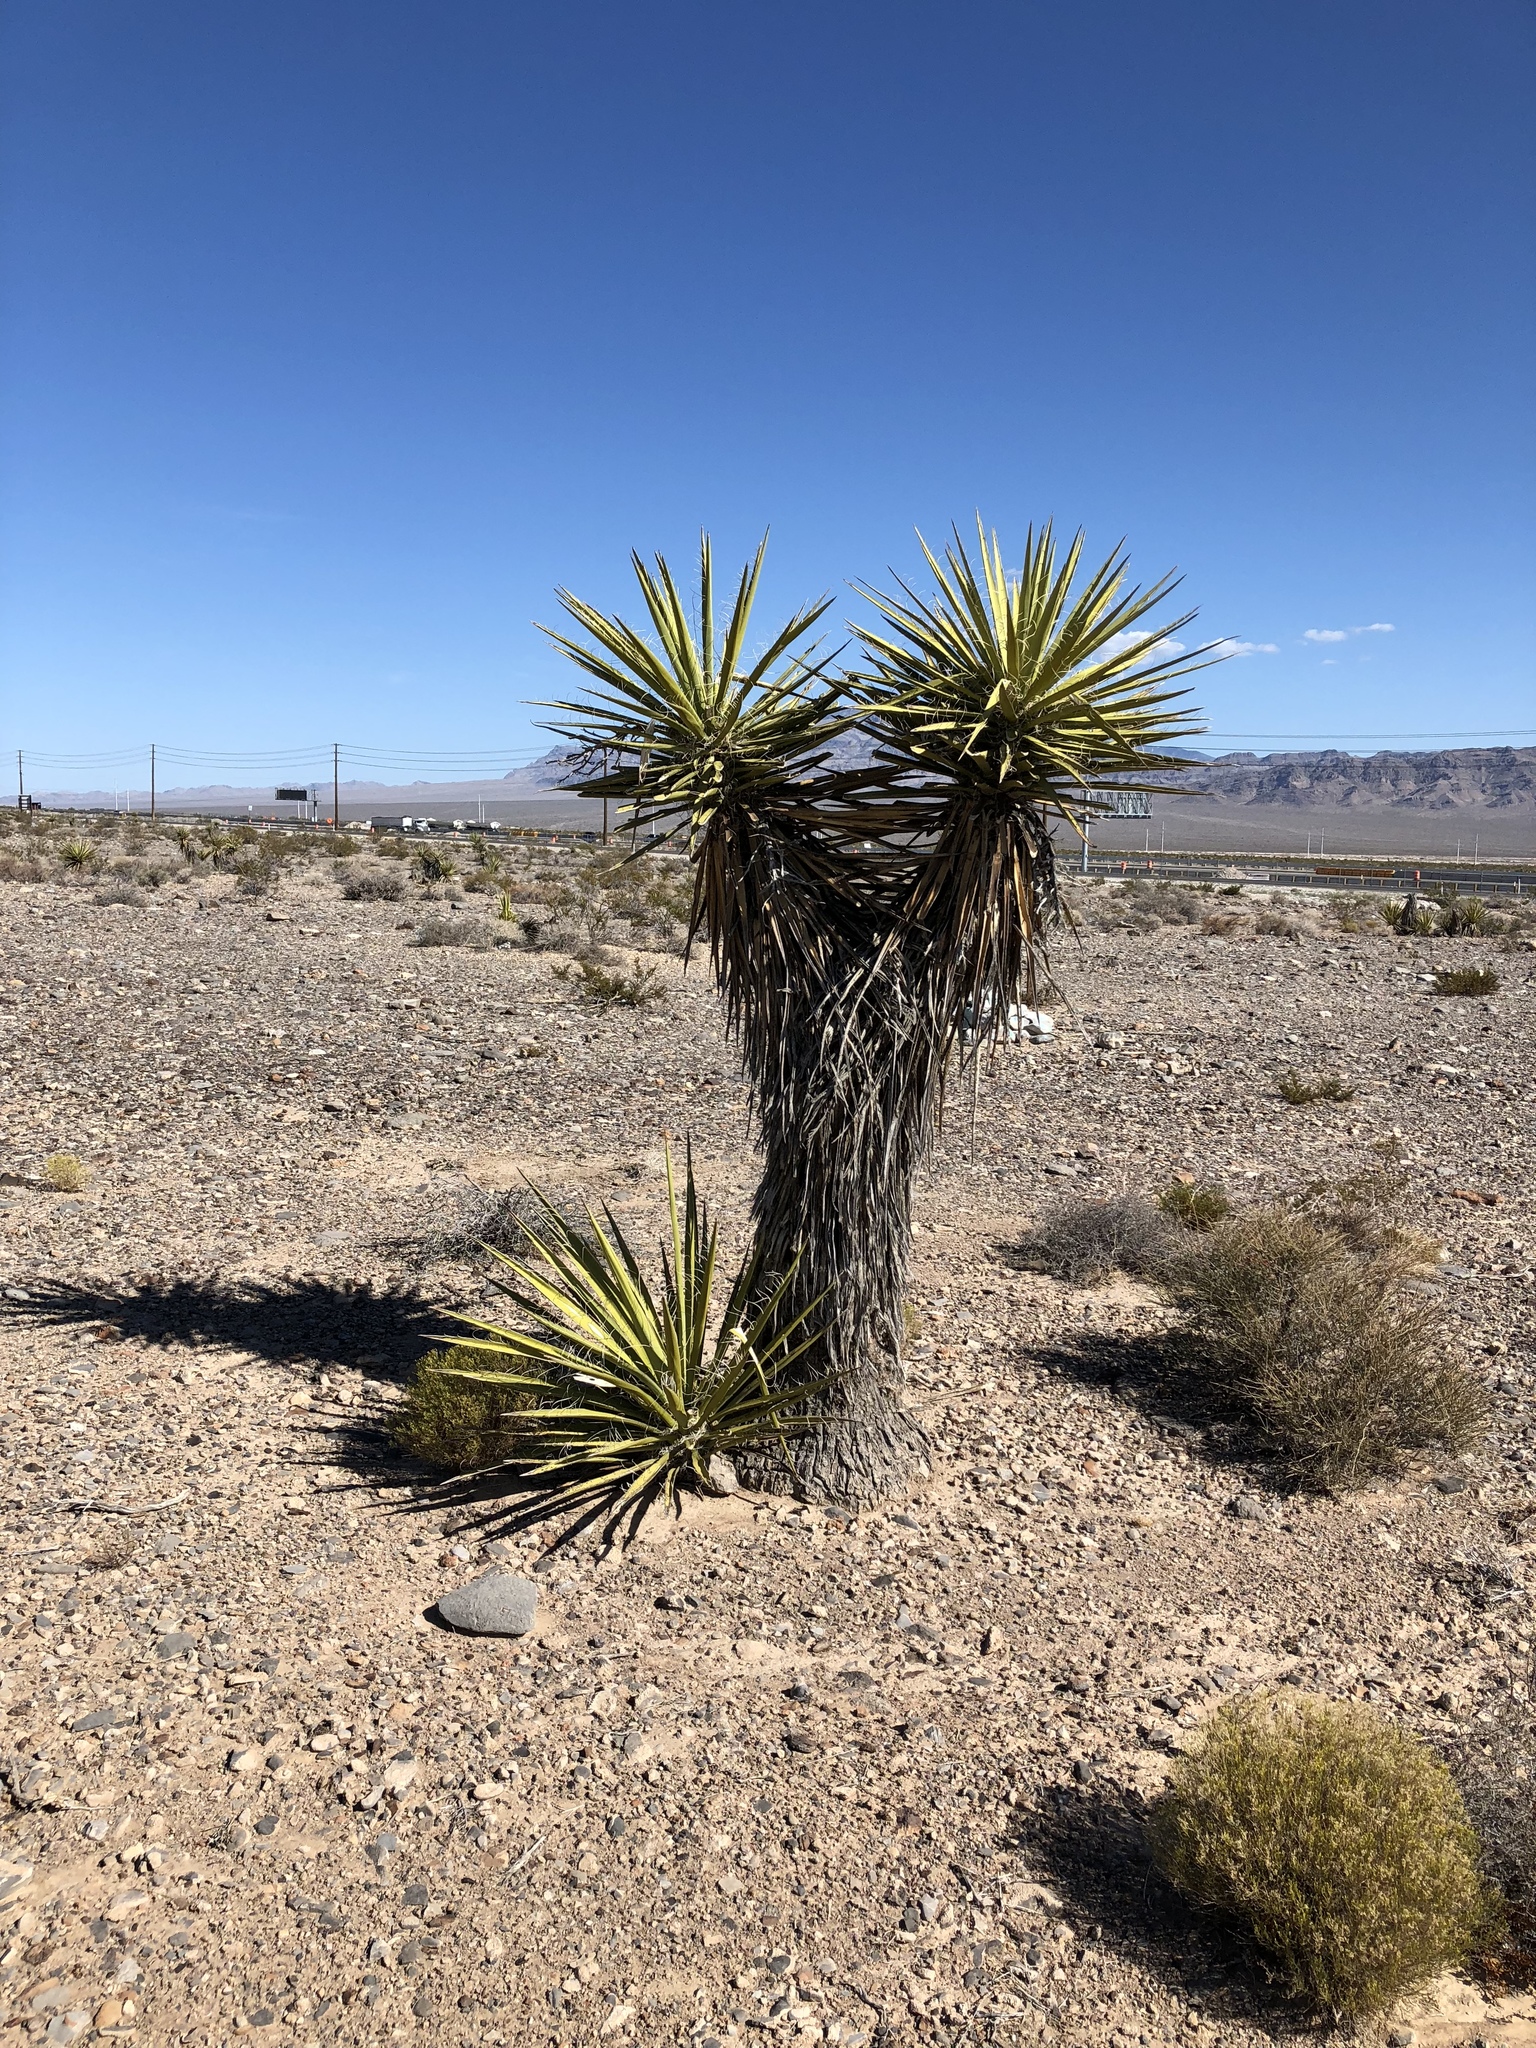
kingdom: Plantae
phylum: Tracheophyta
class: Liliopsida
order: Asparagales
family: Asparagaceae
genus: Yucca
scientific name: Yucca schidigera
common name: Mojave yucca
